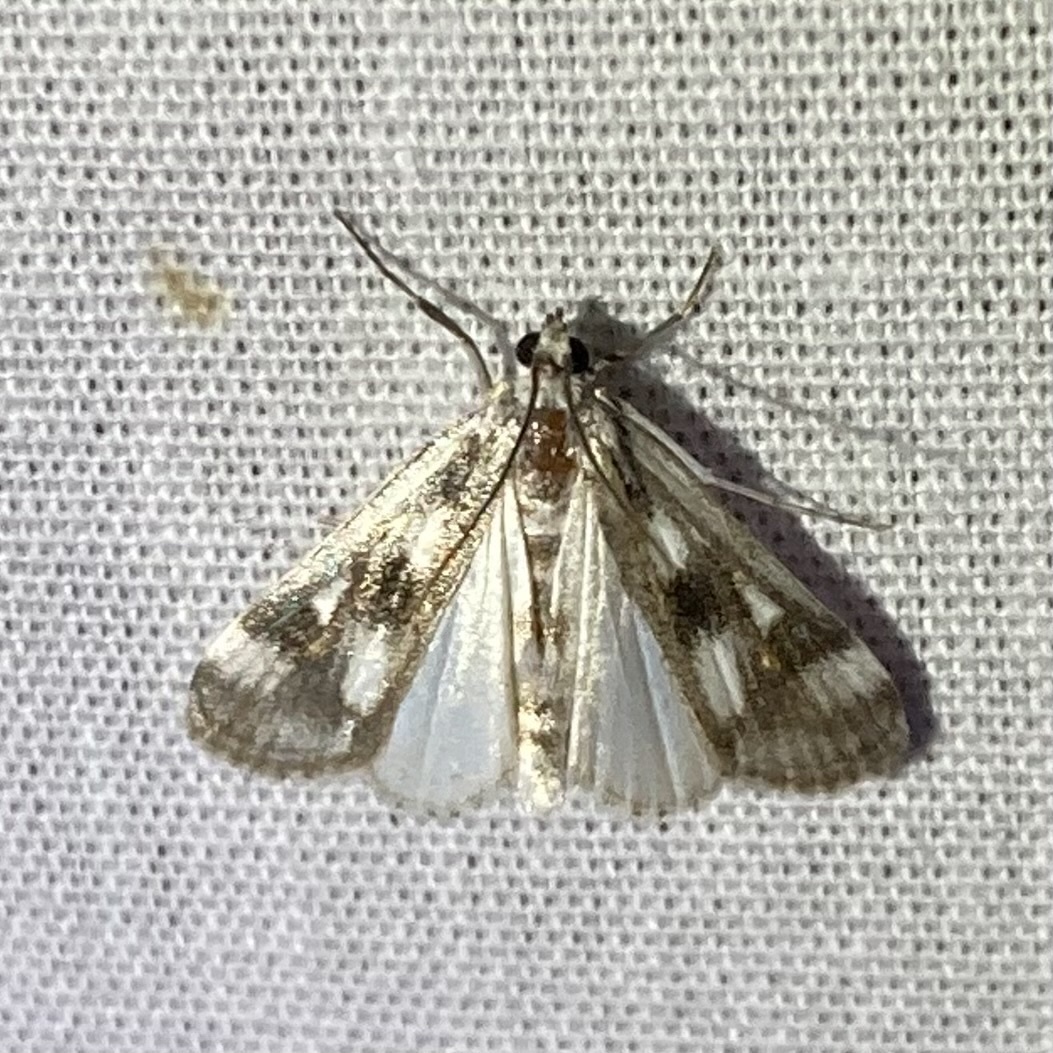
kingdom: Animalia
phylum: Arthropoda
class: Insecta
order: Lepidoptera
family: Crambidae
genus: Parapoynx
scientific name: Parapoynx maculalis
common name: Polymorphic pondweed moth
